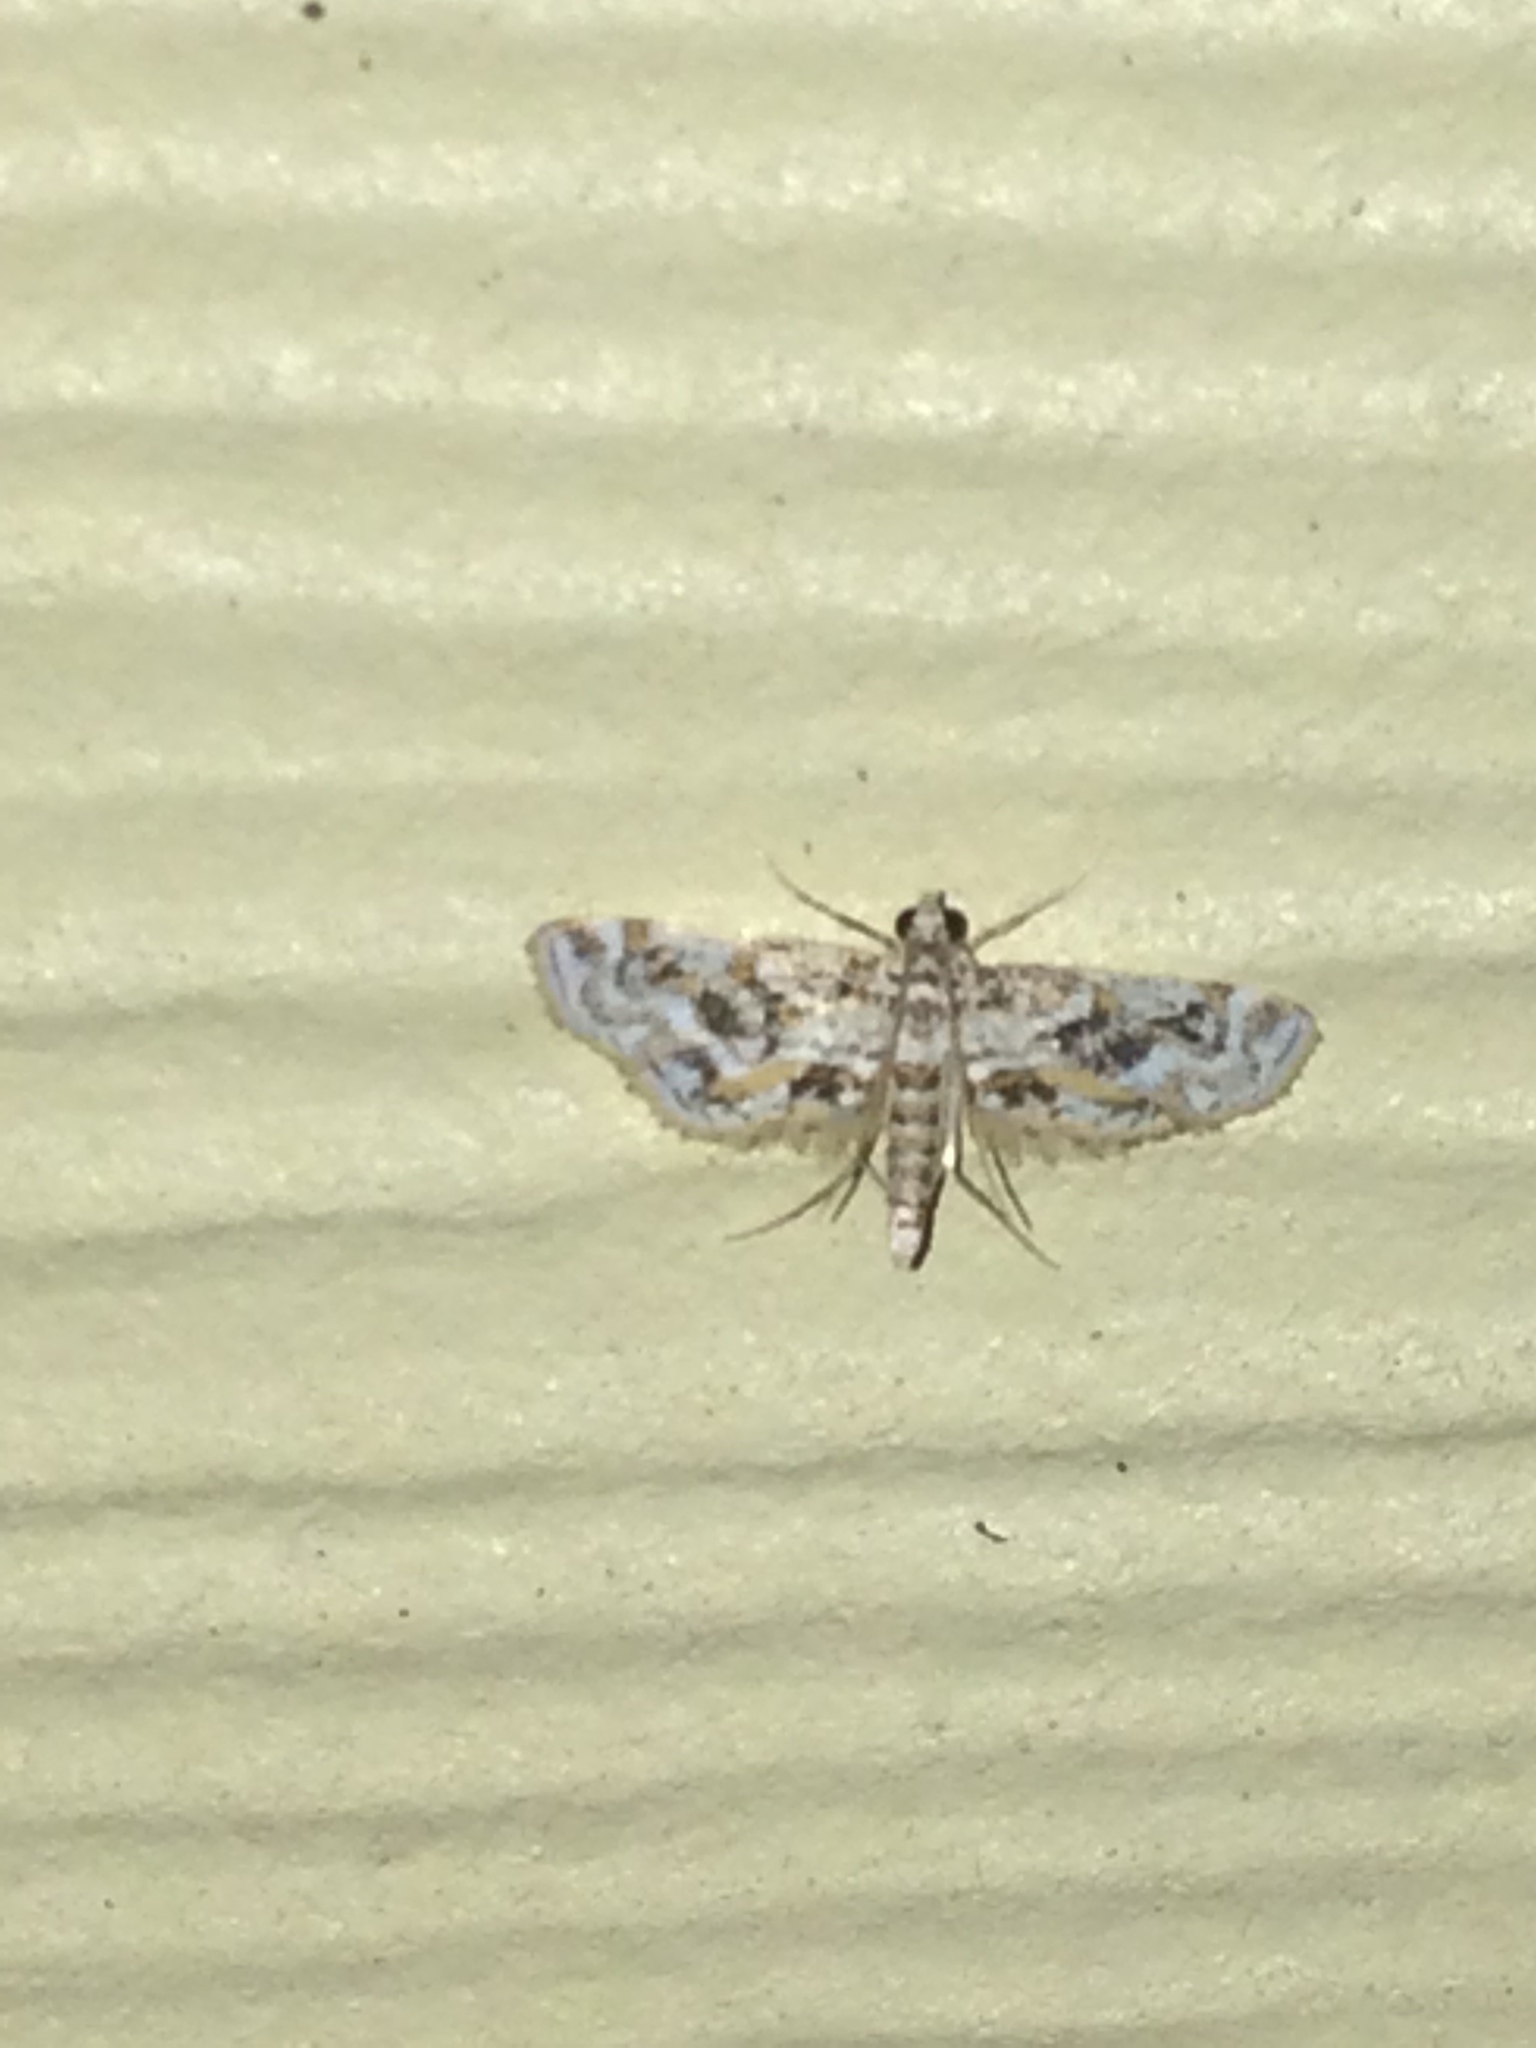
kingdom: Animalia
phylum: Arthropoda
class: Insecta
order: Lepidoptera
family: Crambidae
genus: Parapoynx
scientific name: Parapoynx diminutalis
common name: Hydrilla leafcutter
